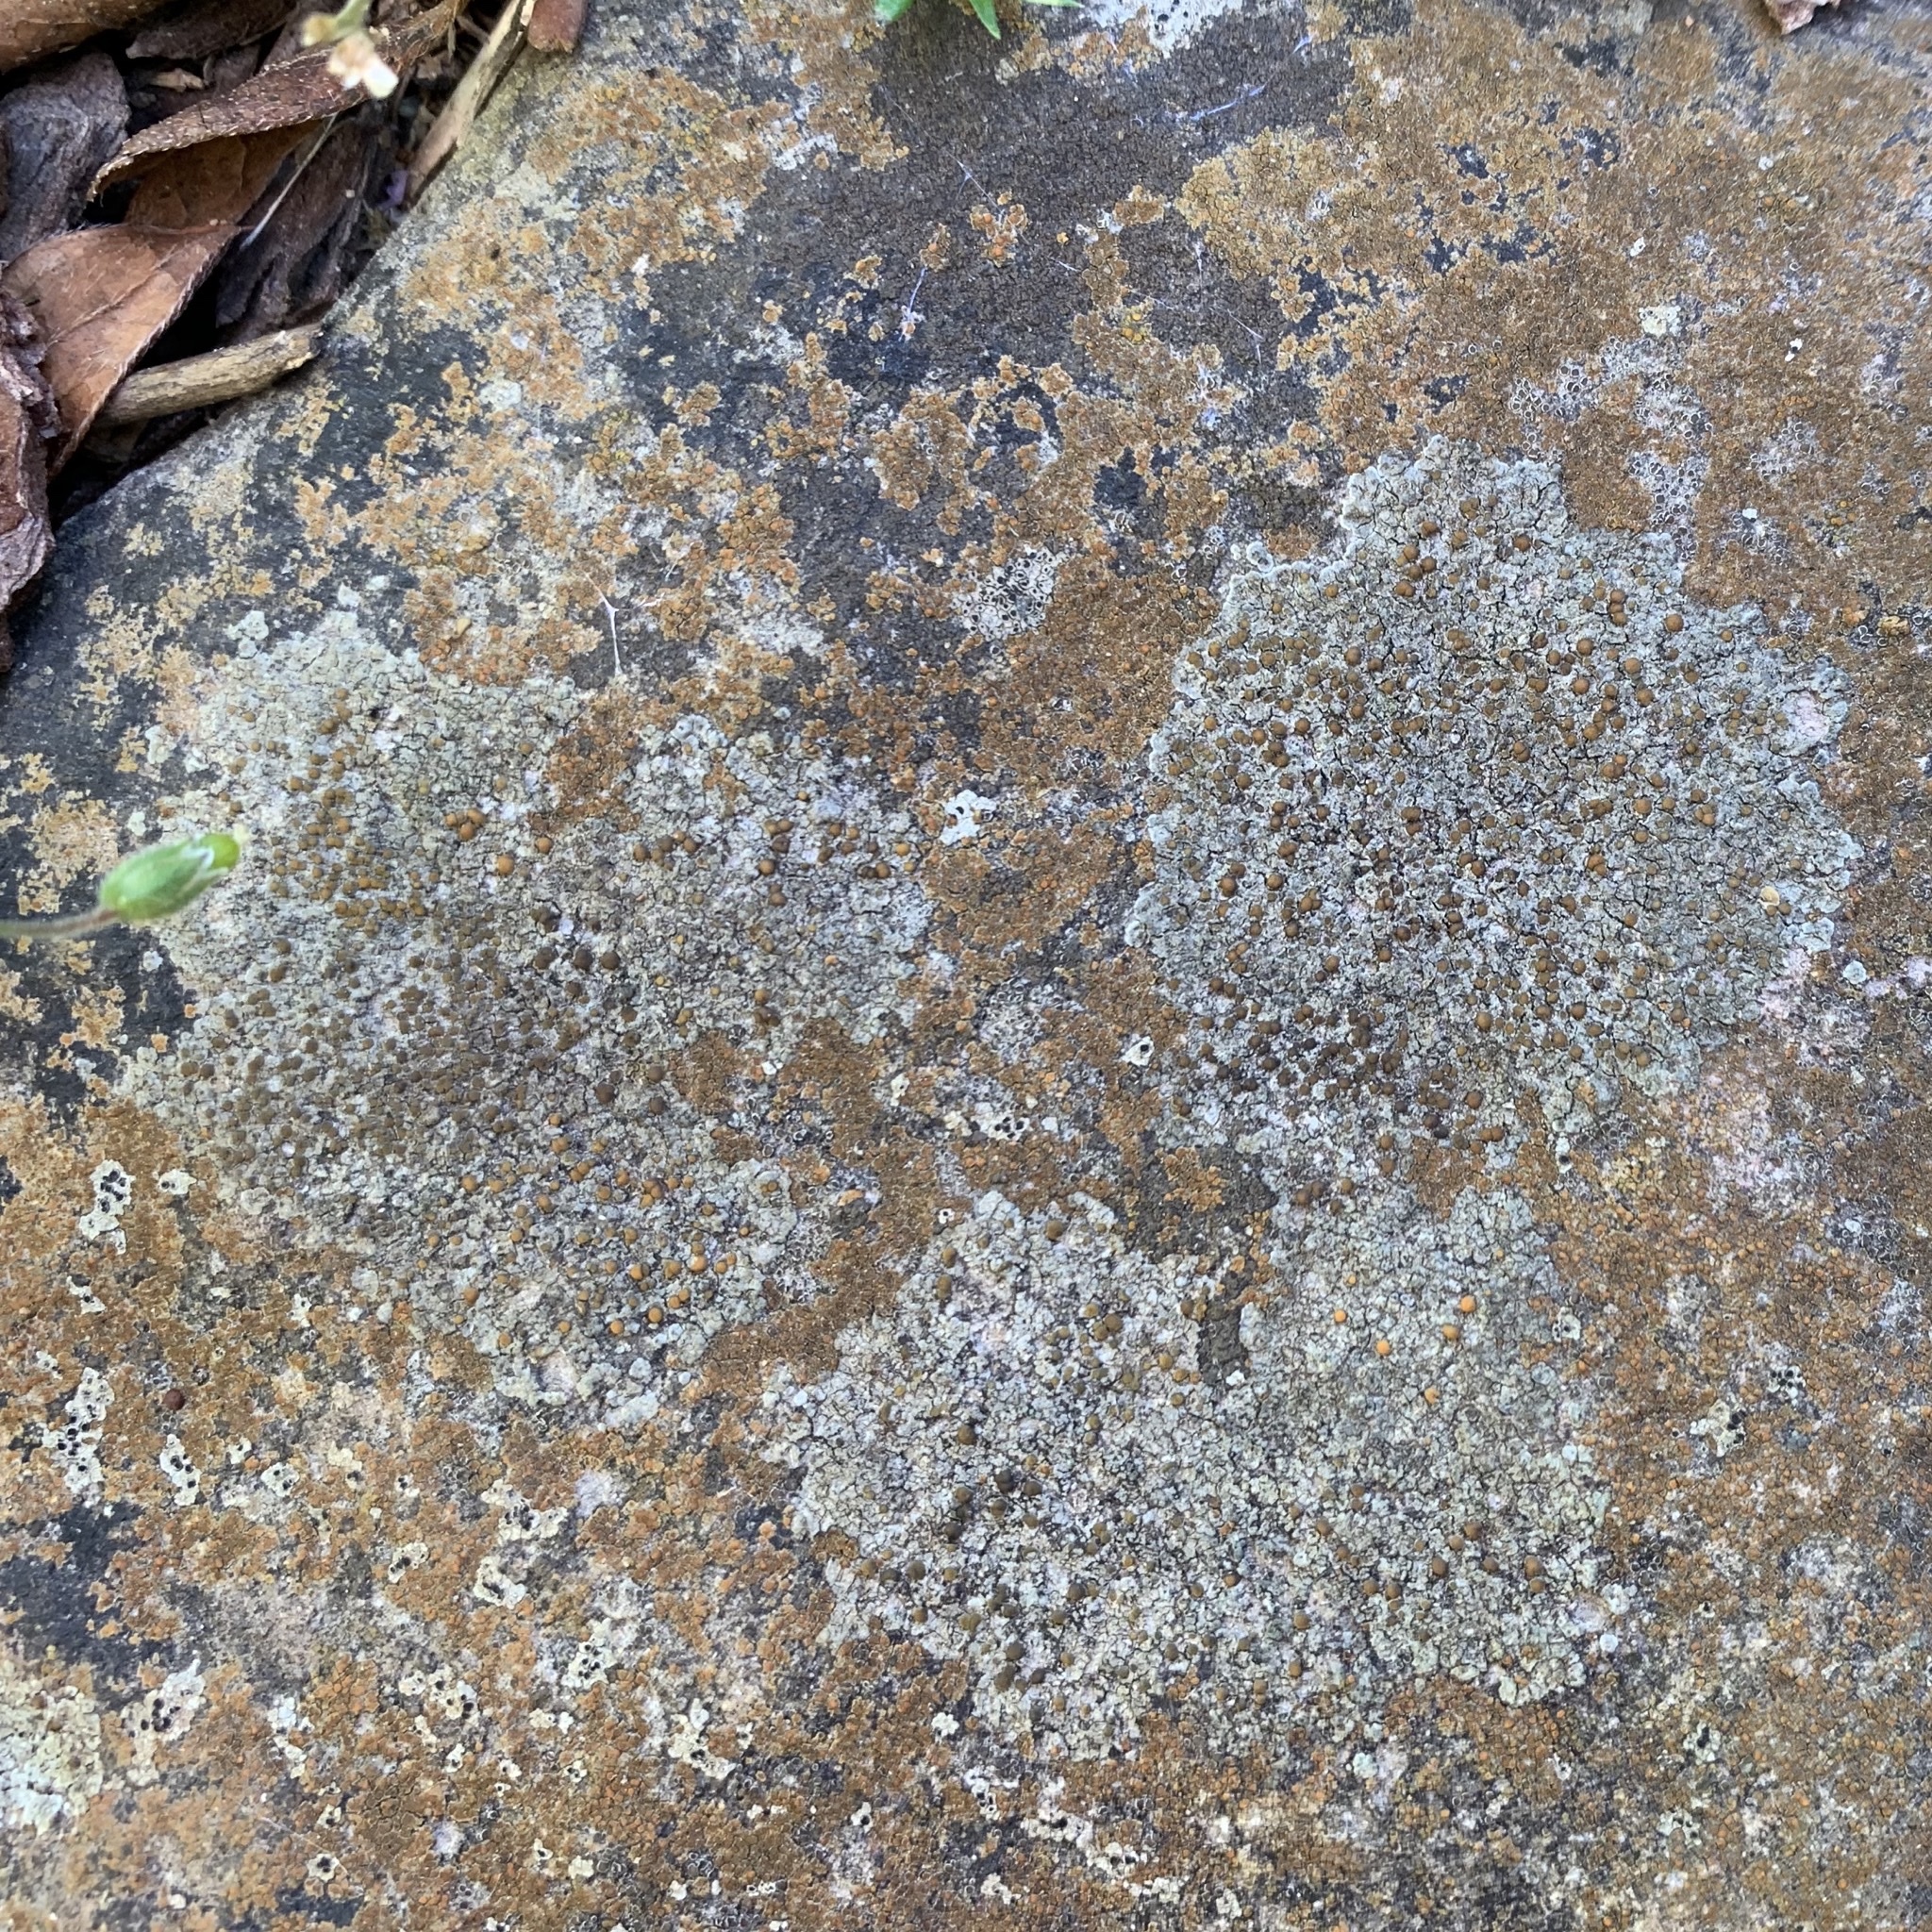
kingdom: Fungi
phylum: Ascomycota
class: Lecanoromycetes
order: Teloschistales
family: Teloschistaceae
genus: Caloplaca
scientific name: Caloplaca sideritis
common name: Iron firedot lichen
